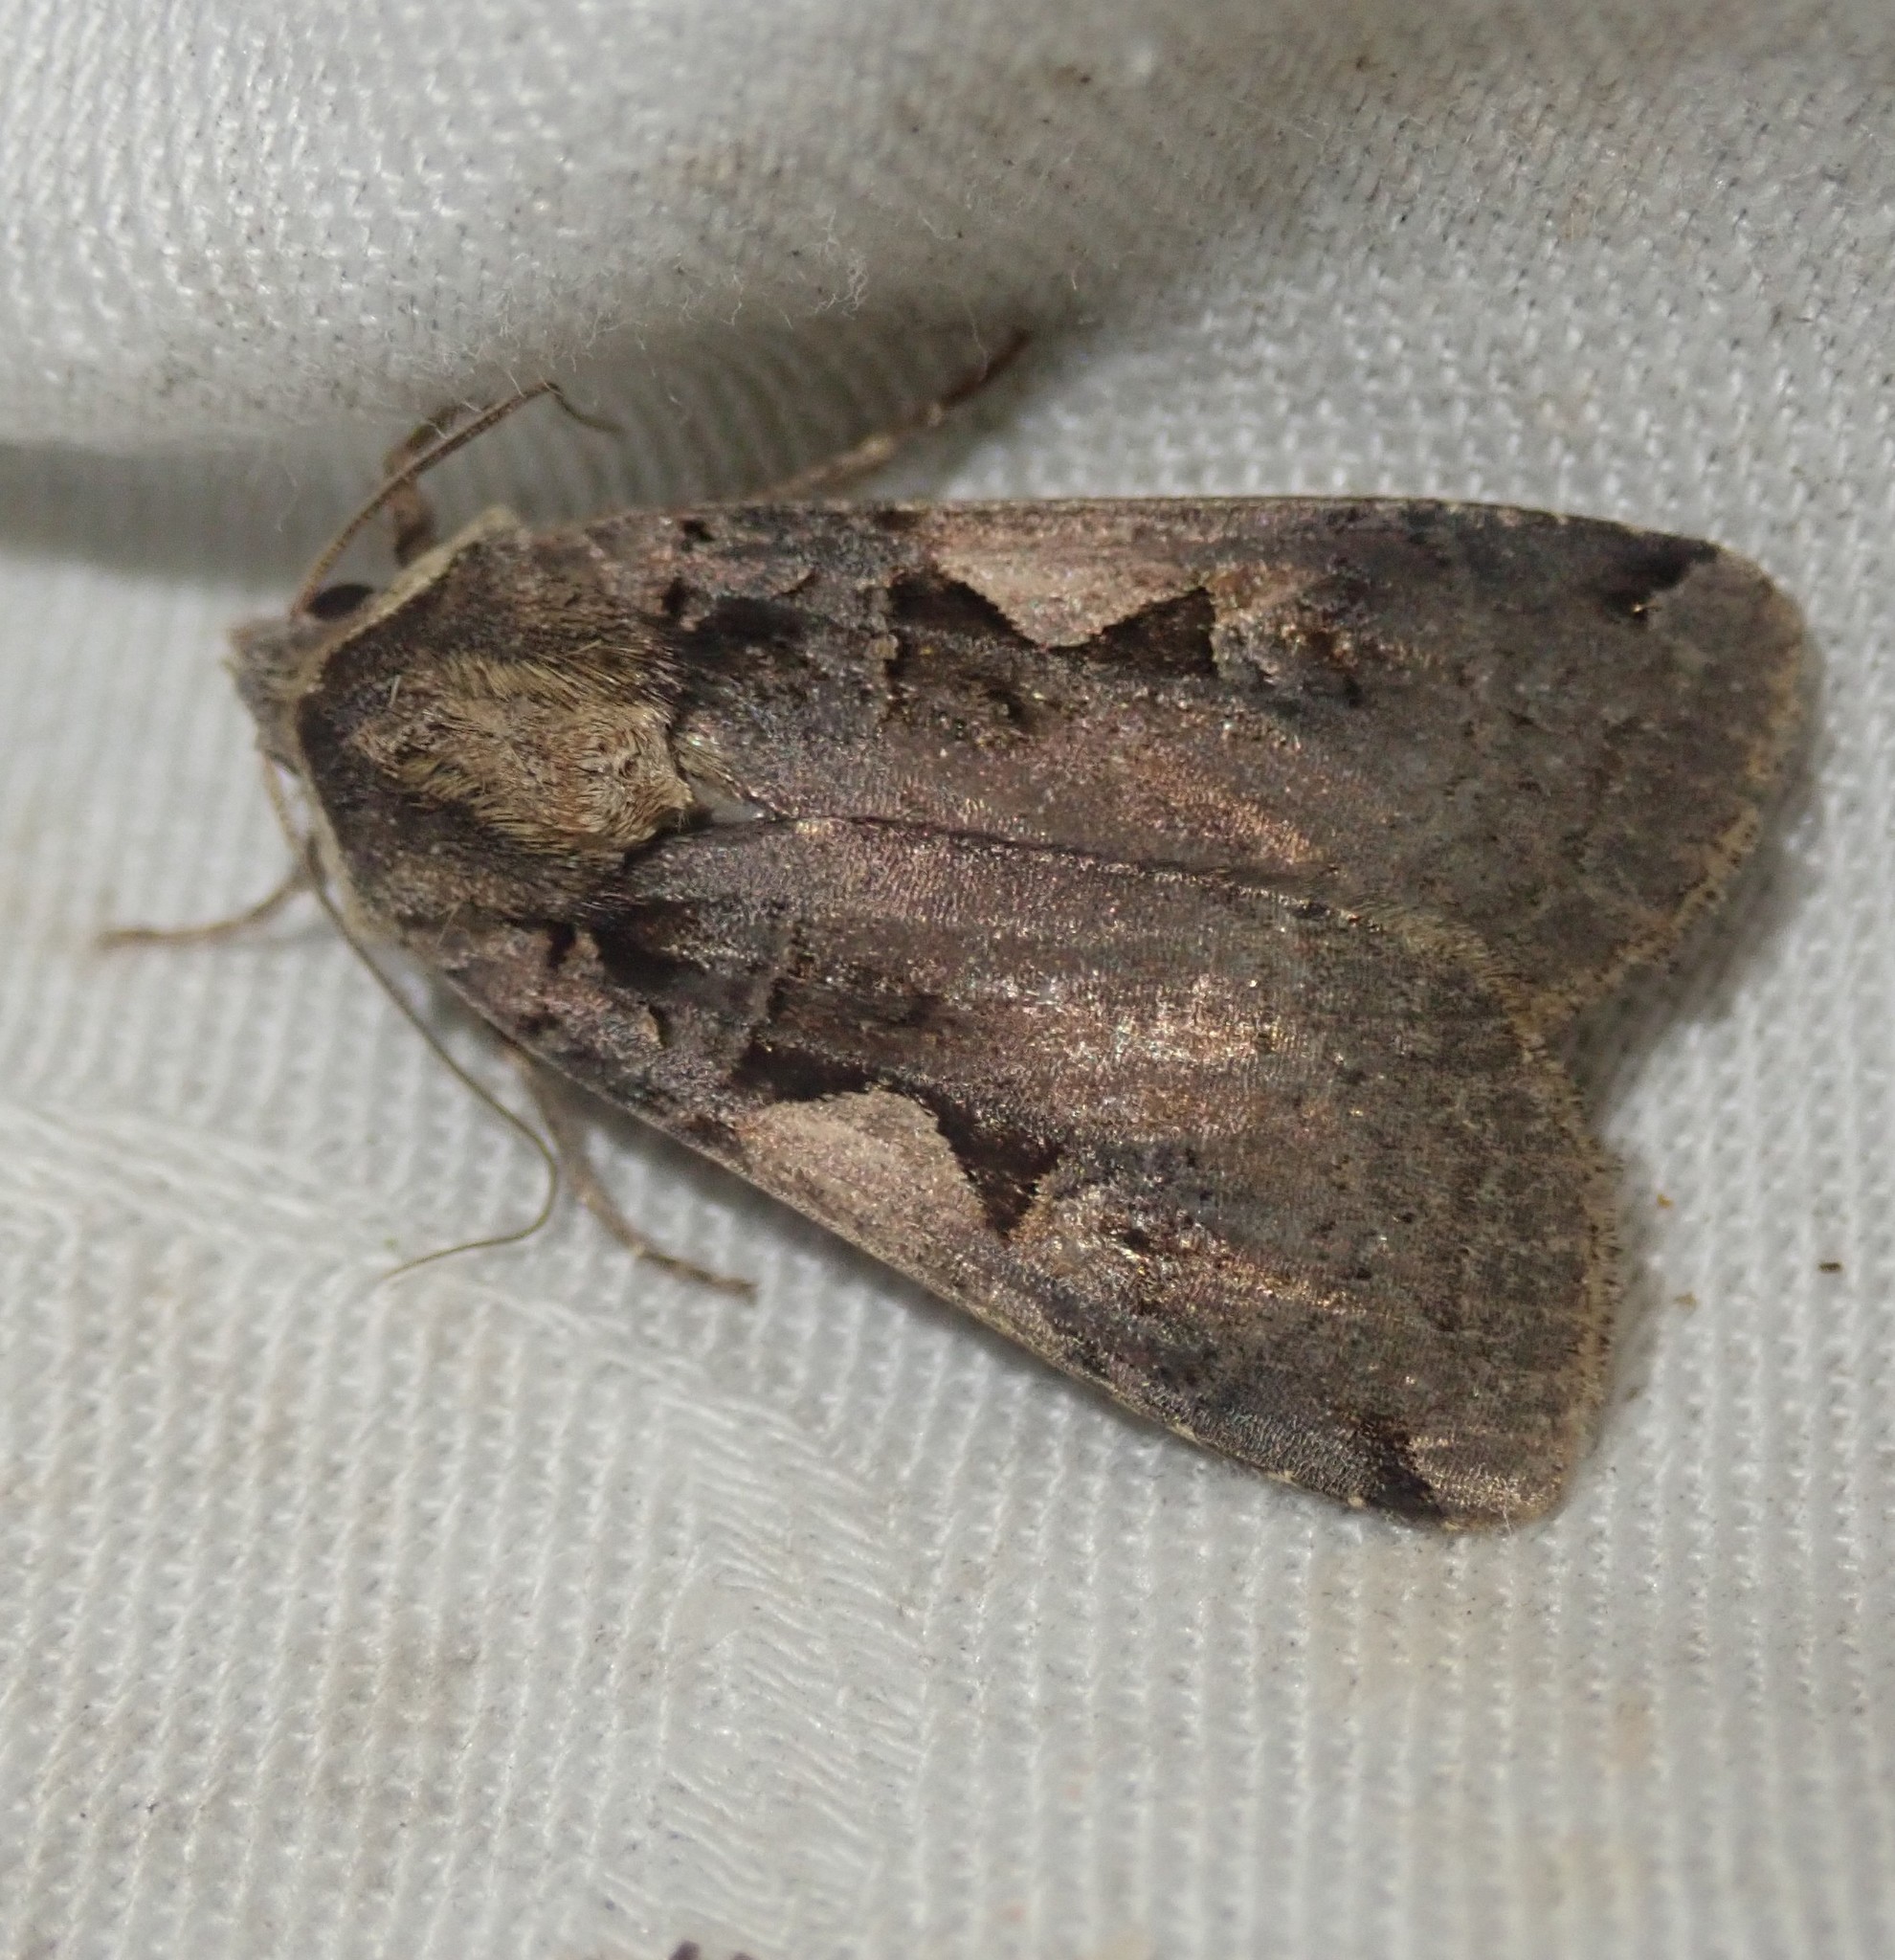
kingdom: Animalia
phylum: Arthropoda
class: Insecta
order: Lepidoptera
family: Noctuidae
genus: Xestia
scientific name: Xestia c-nigrum
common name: Setaceous hebrew character
